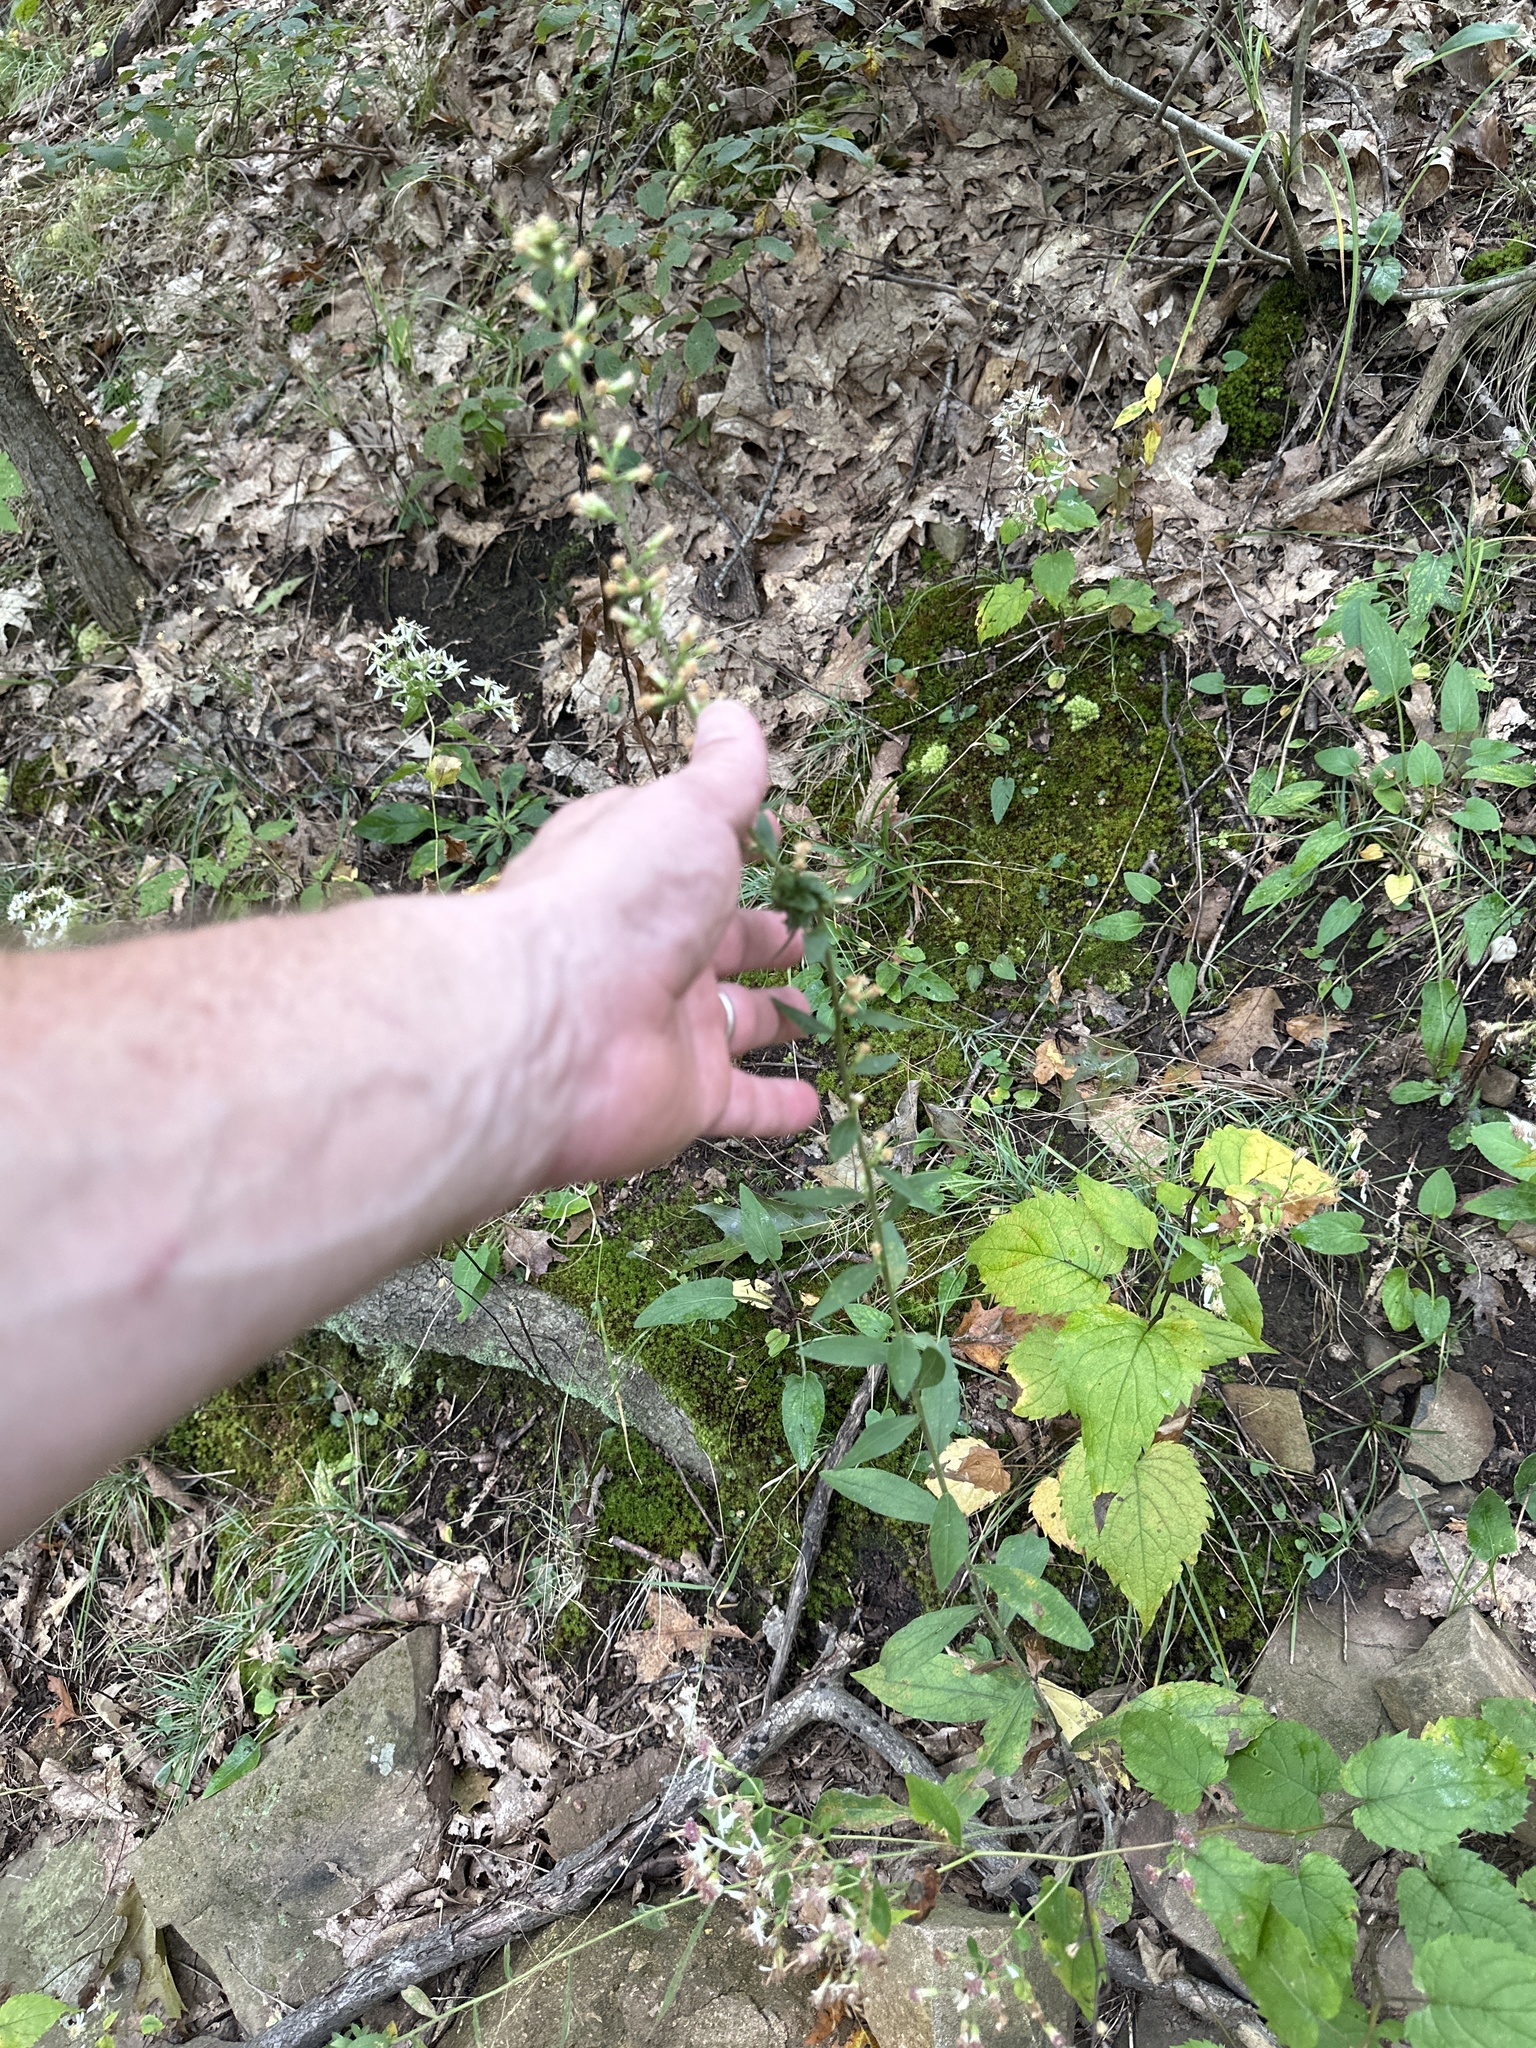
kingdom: Plantae
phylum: Tracheophyta
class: Magnoliopsida
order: Asterales
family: Asteraceae
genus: Solidago
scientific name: Solidago bicolor
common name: Silverrod
